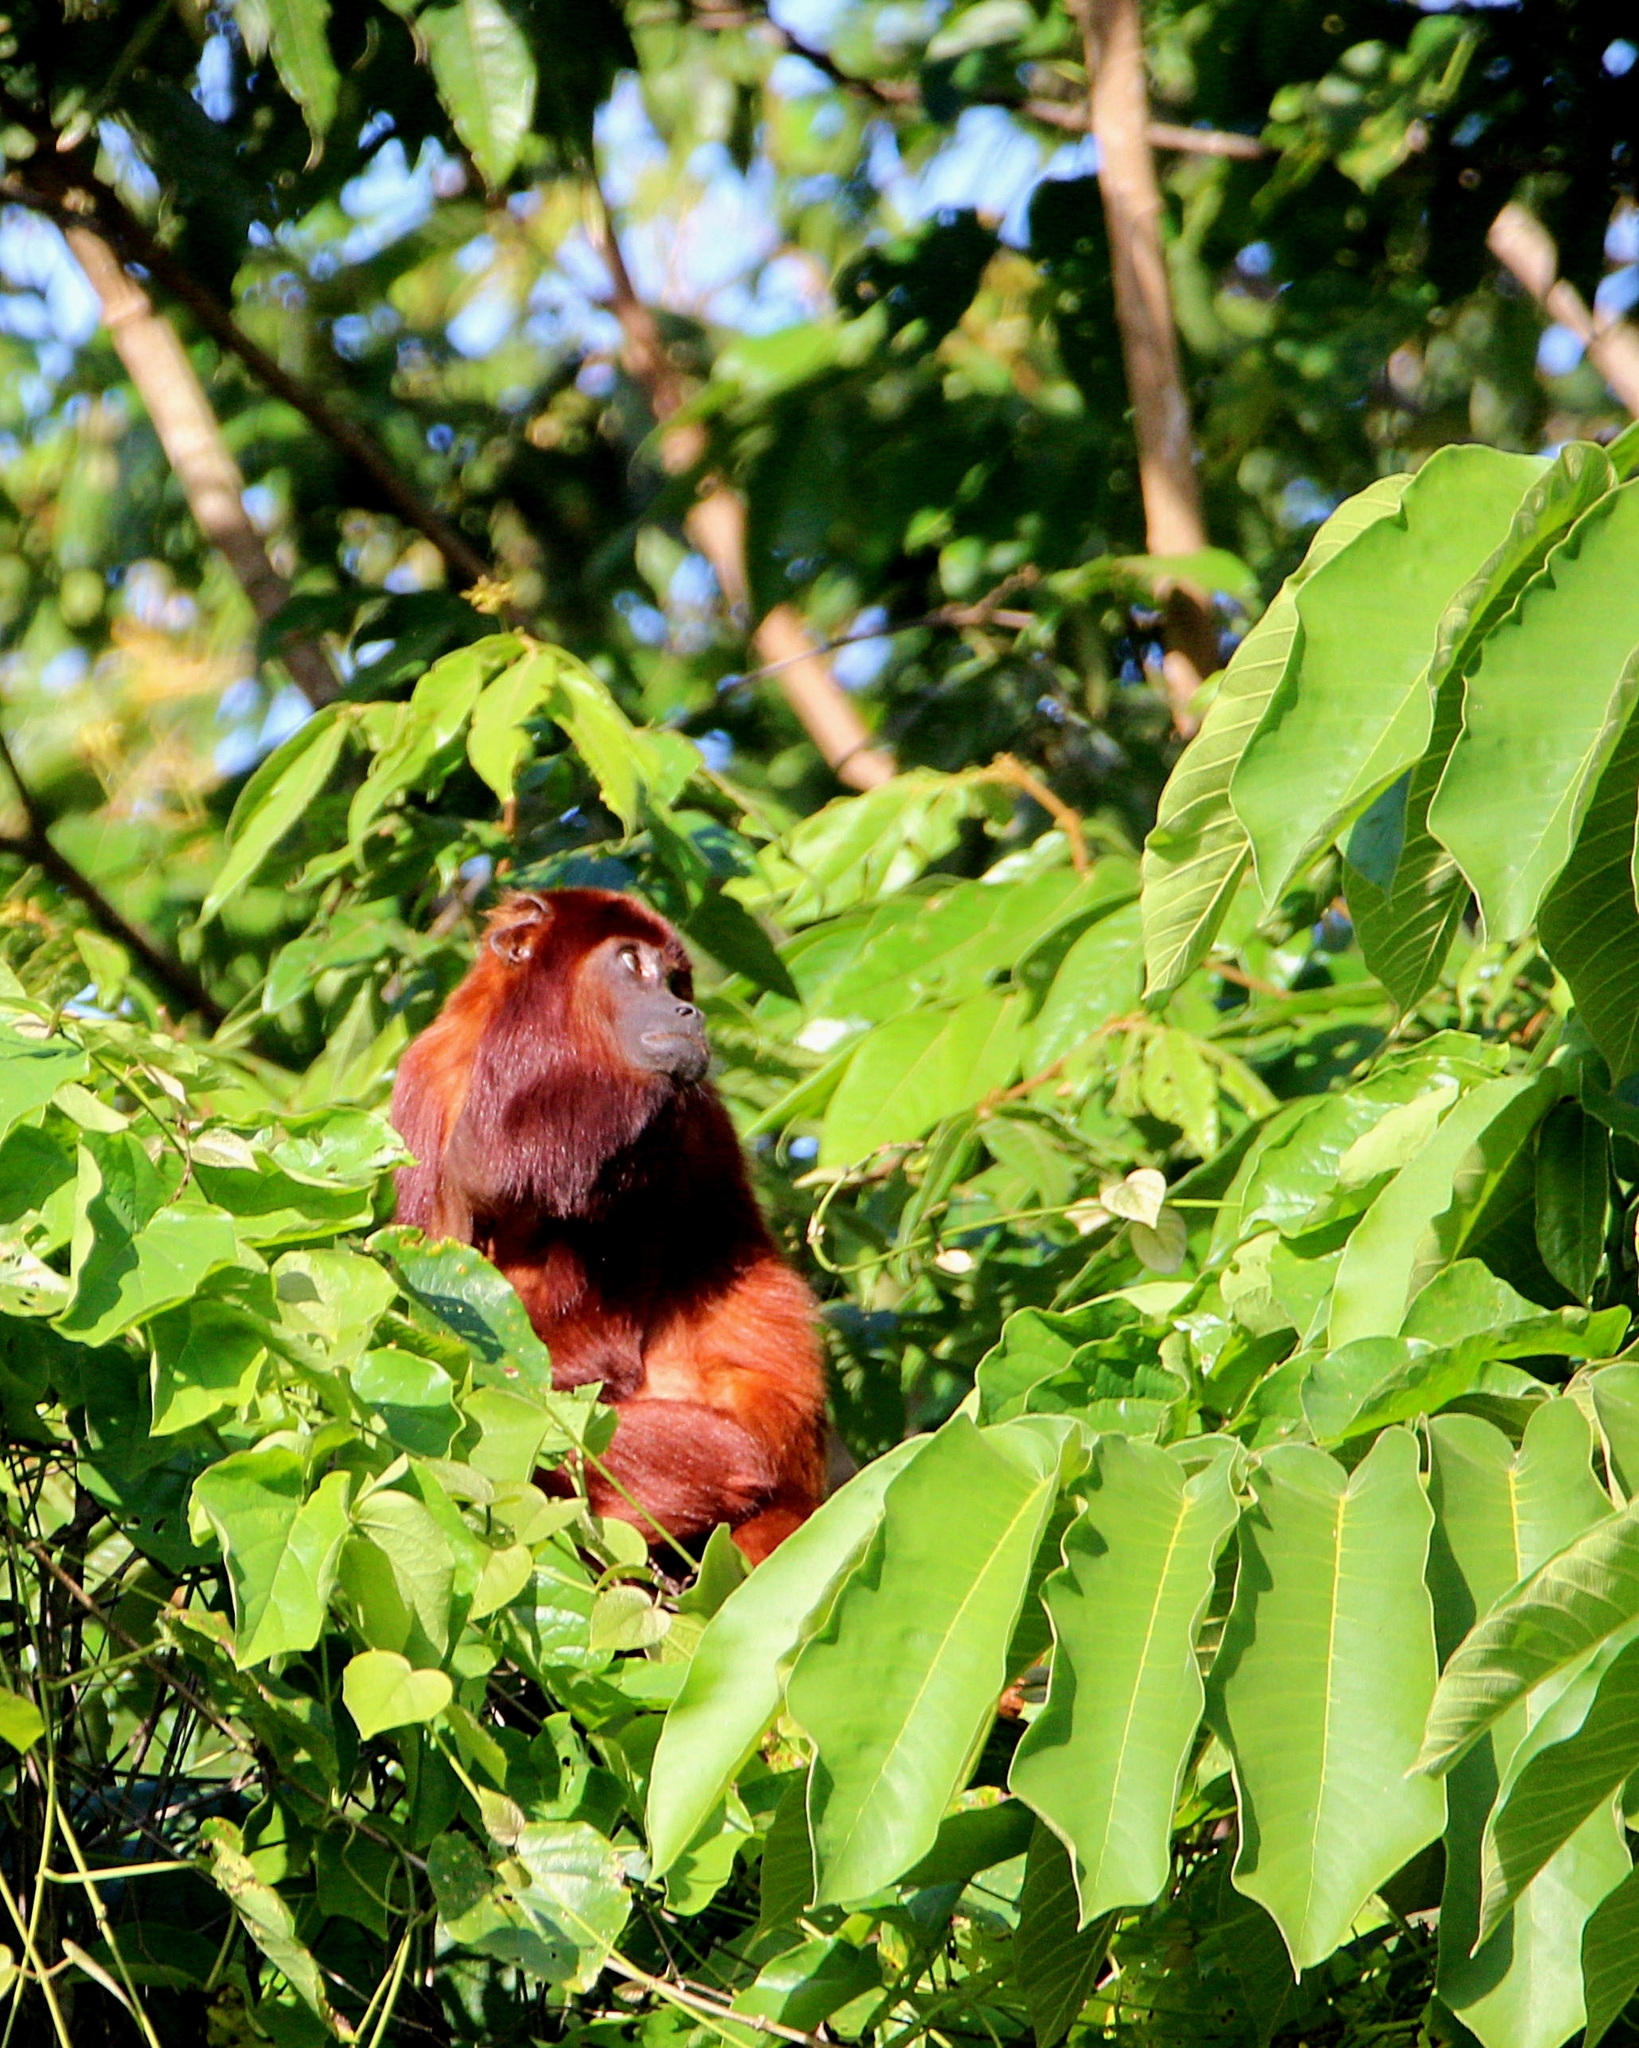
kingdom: Animalia
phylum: Chordata
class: Mammalia
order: Primates
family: Atelidae
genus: Alouatta
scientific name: Alouatta macconnelli
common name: Guyanan red howler
